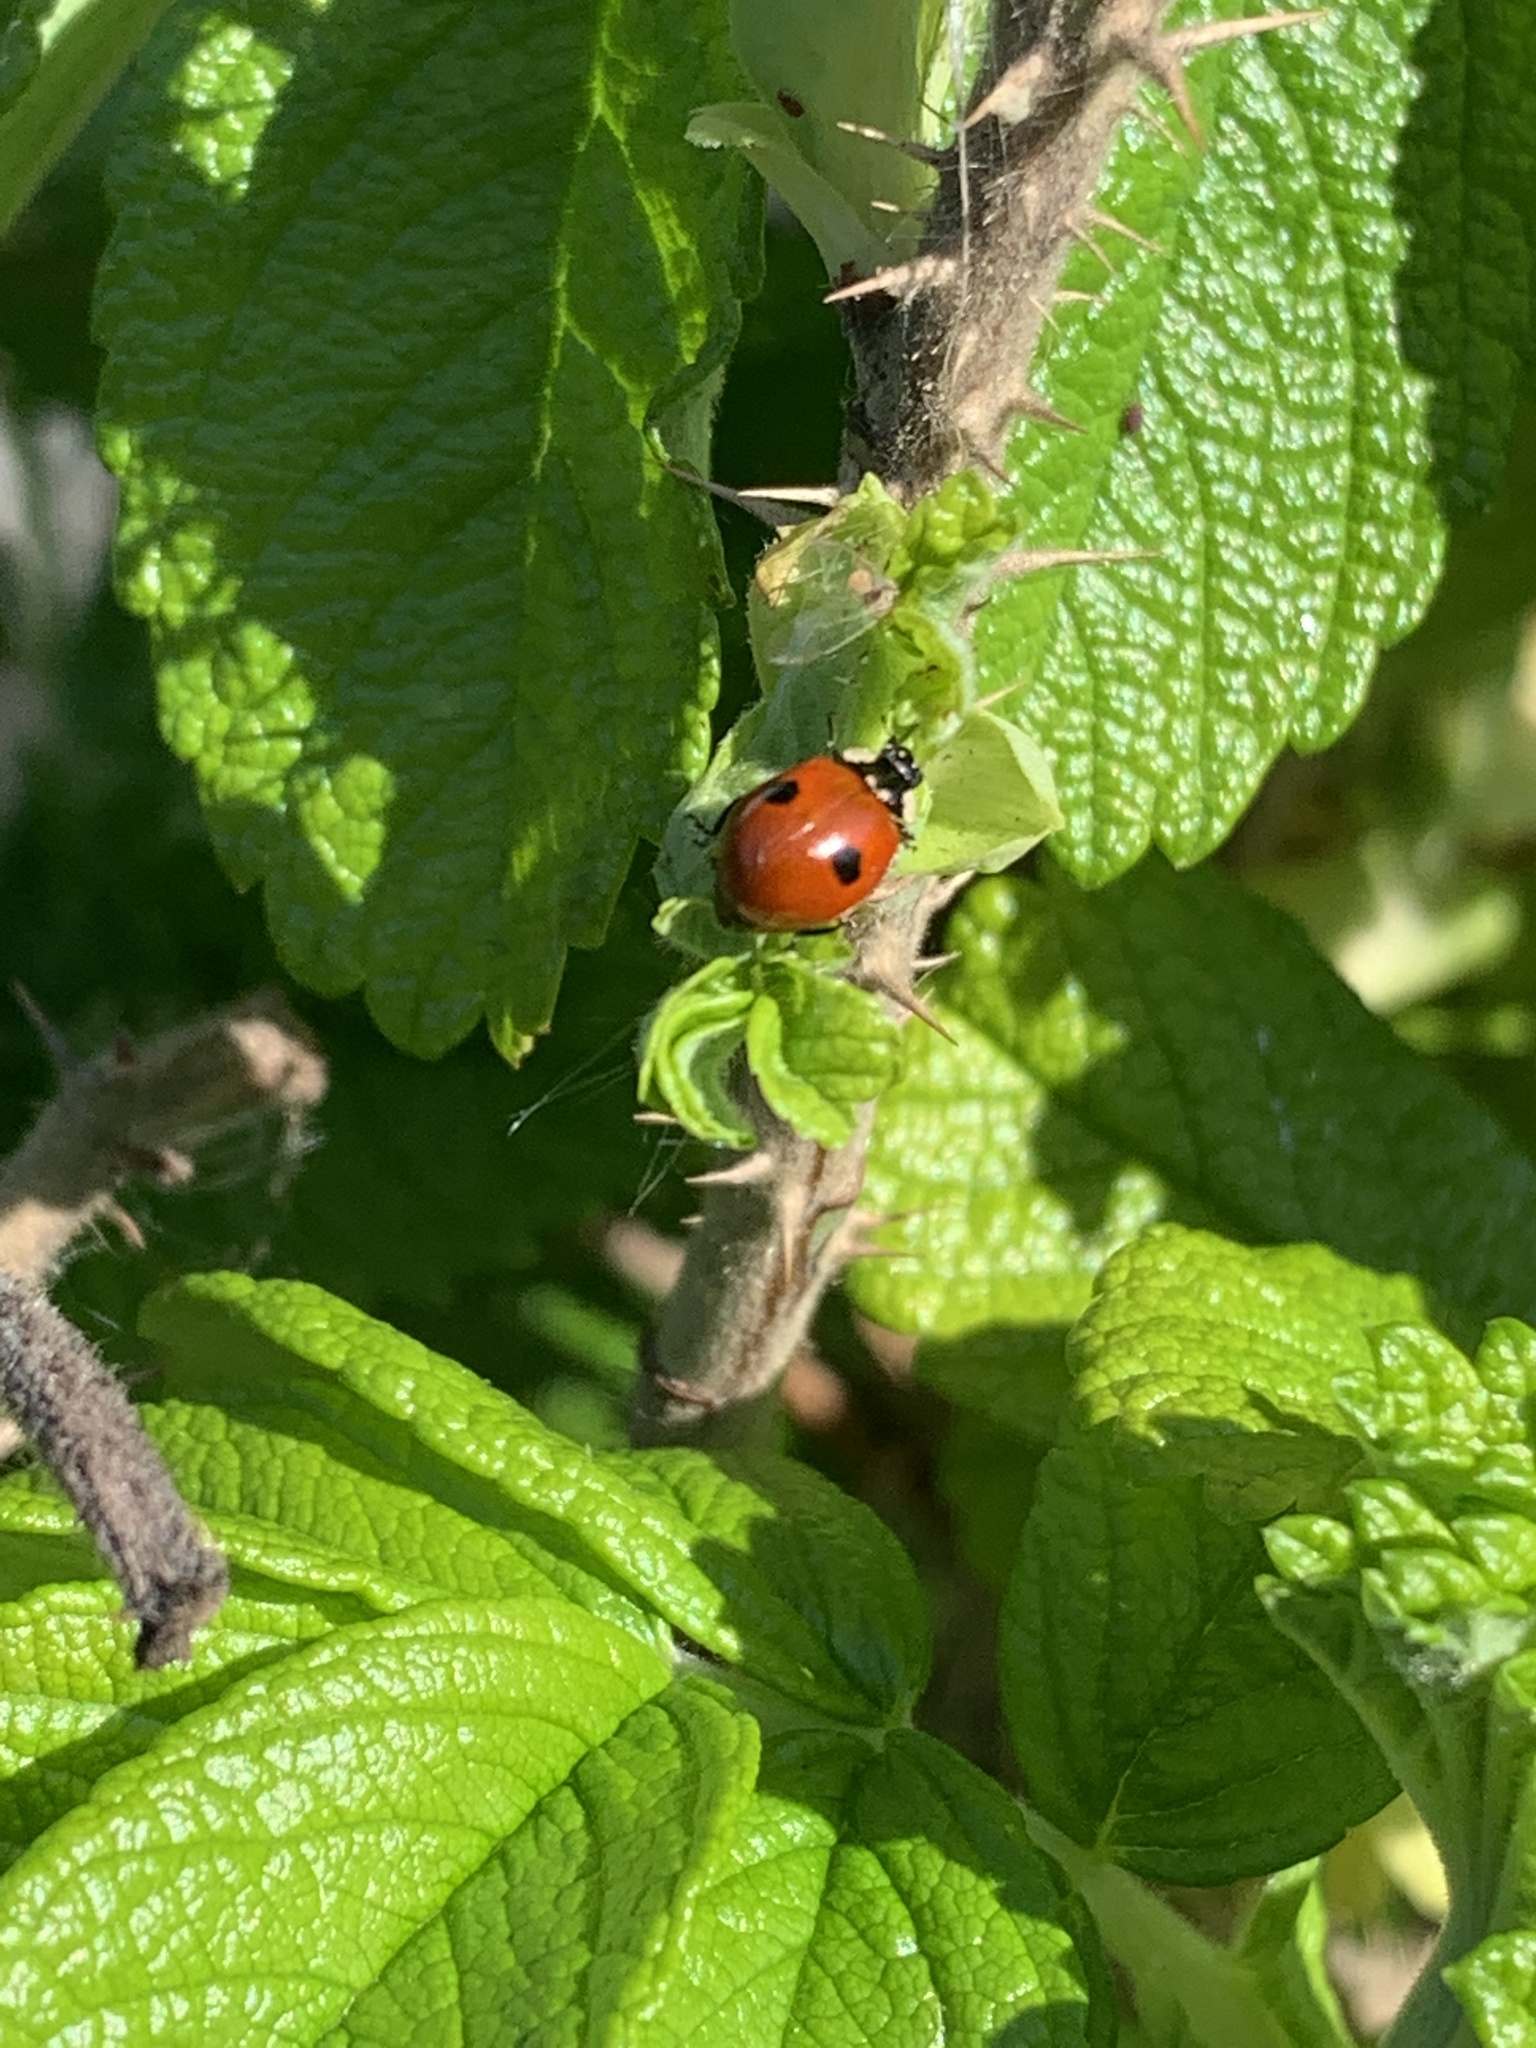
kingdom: Animalia
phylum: Arthropoda
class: Insecta
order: Coleoptera
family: Coccinellidae
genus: Adalia
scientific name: Adalia bipunctata
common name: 2-spot ladybird
